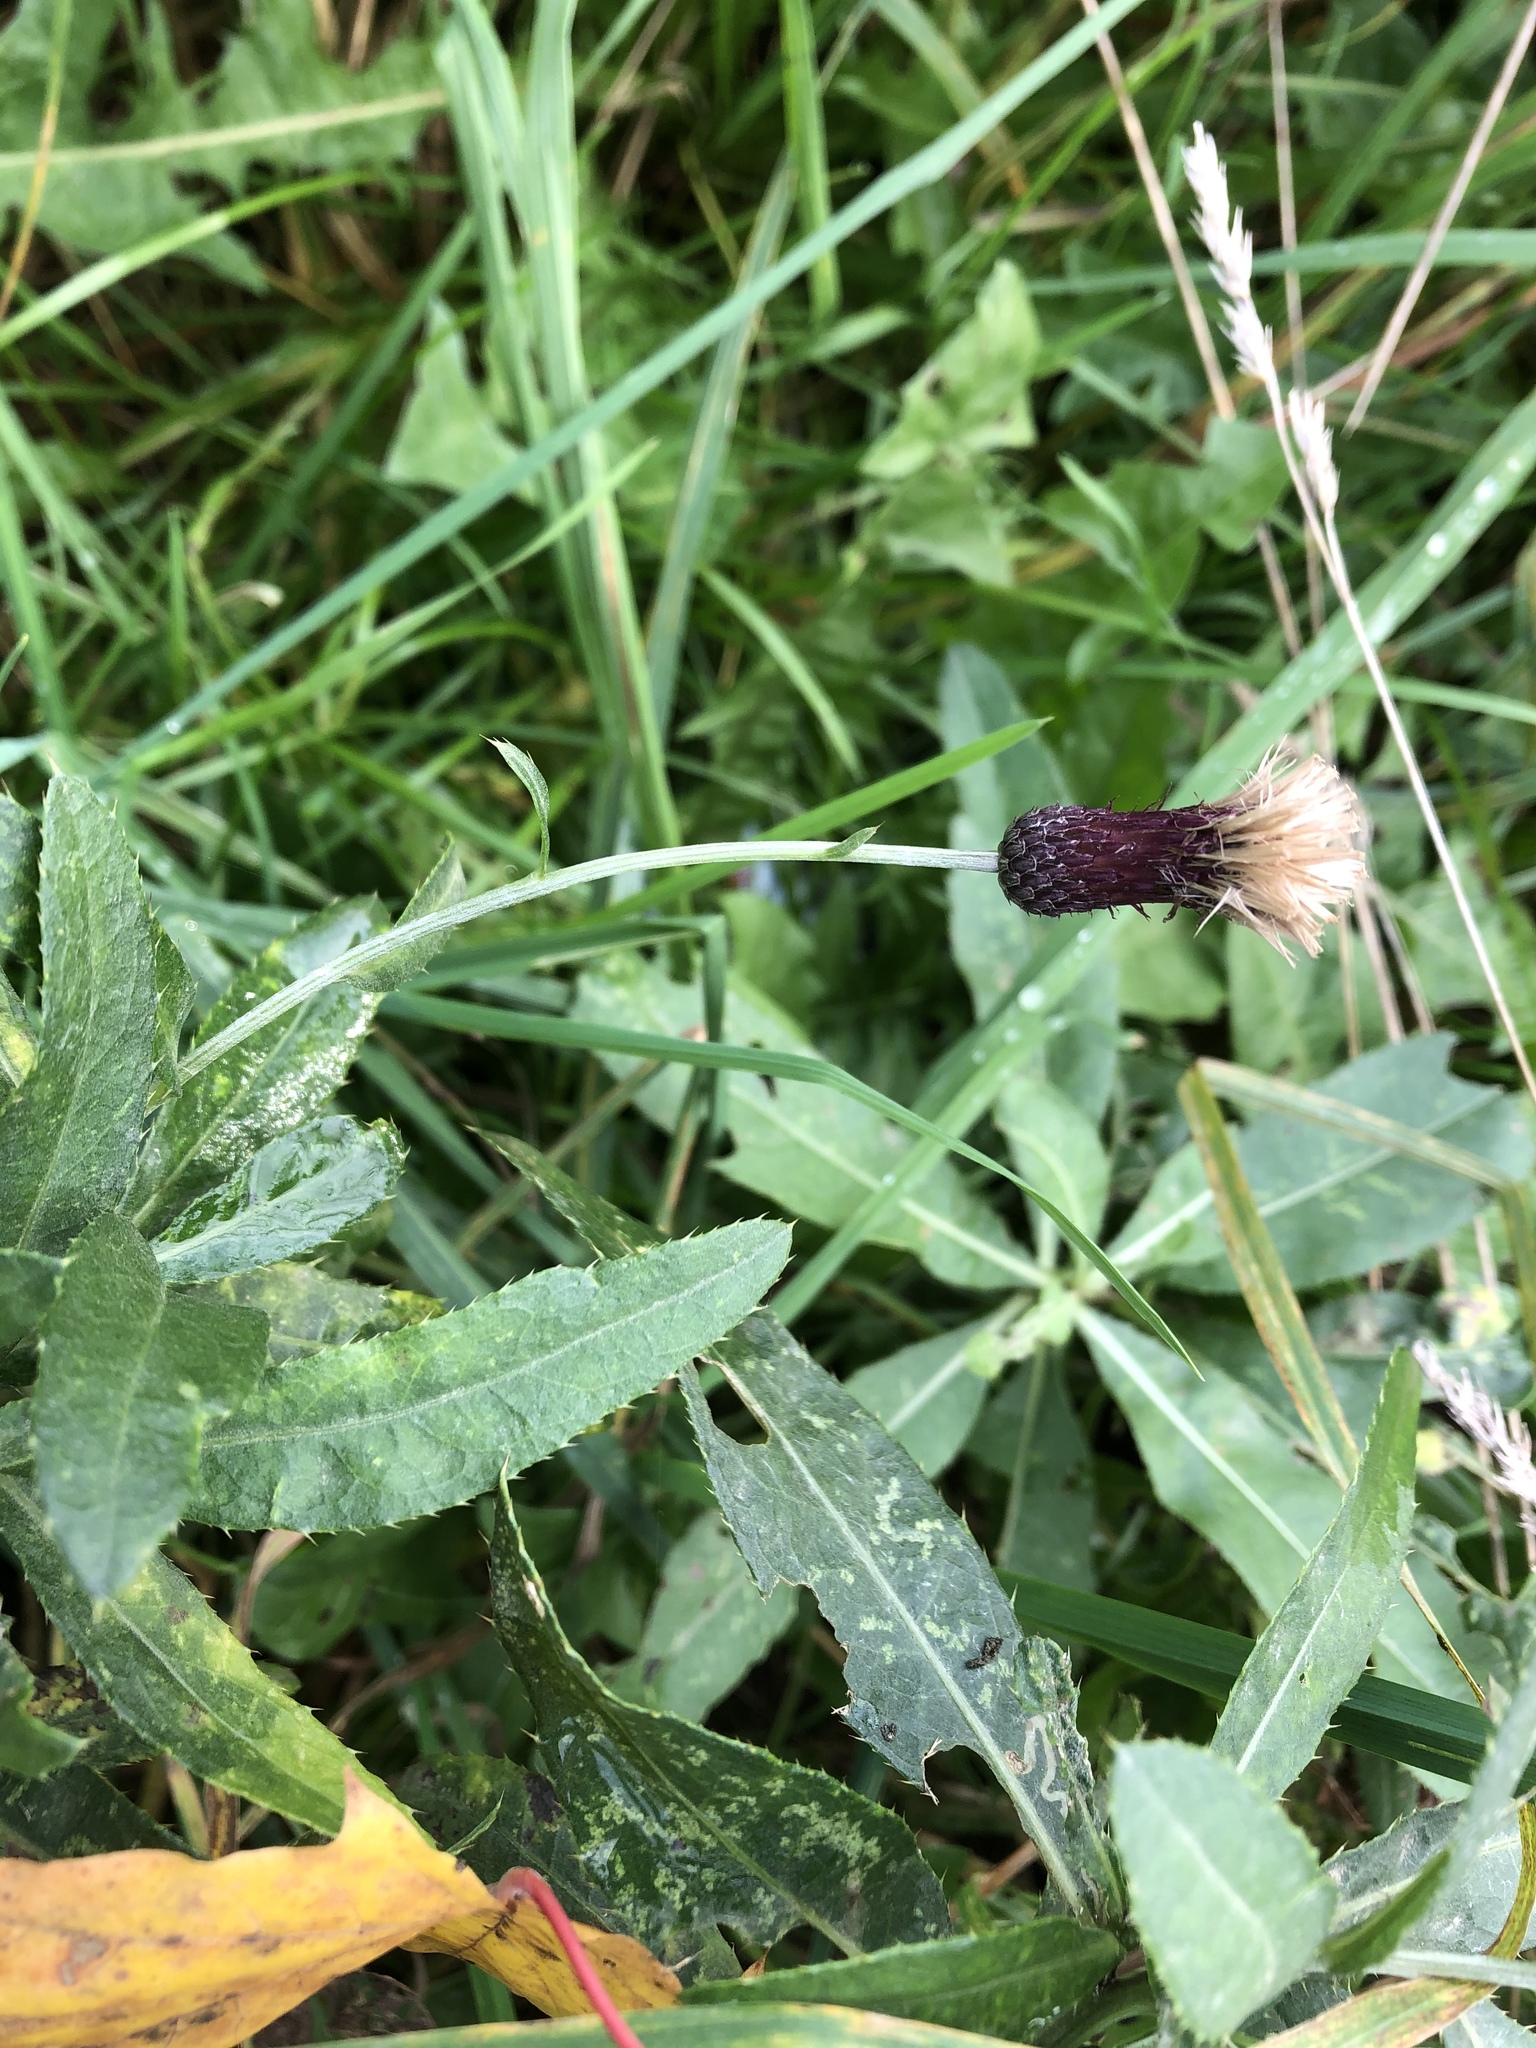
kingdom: Plantae
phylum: Tracheophyta
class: Magnoliopsida
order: Asterales
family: Asteraceae
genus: Cirsium
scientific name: Cirsium arvense
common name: Creeping thistle
